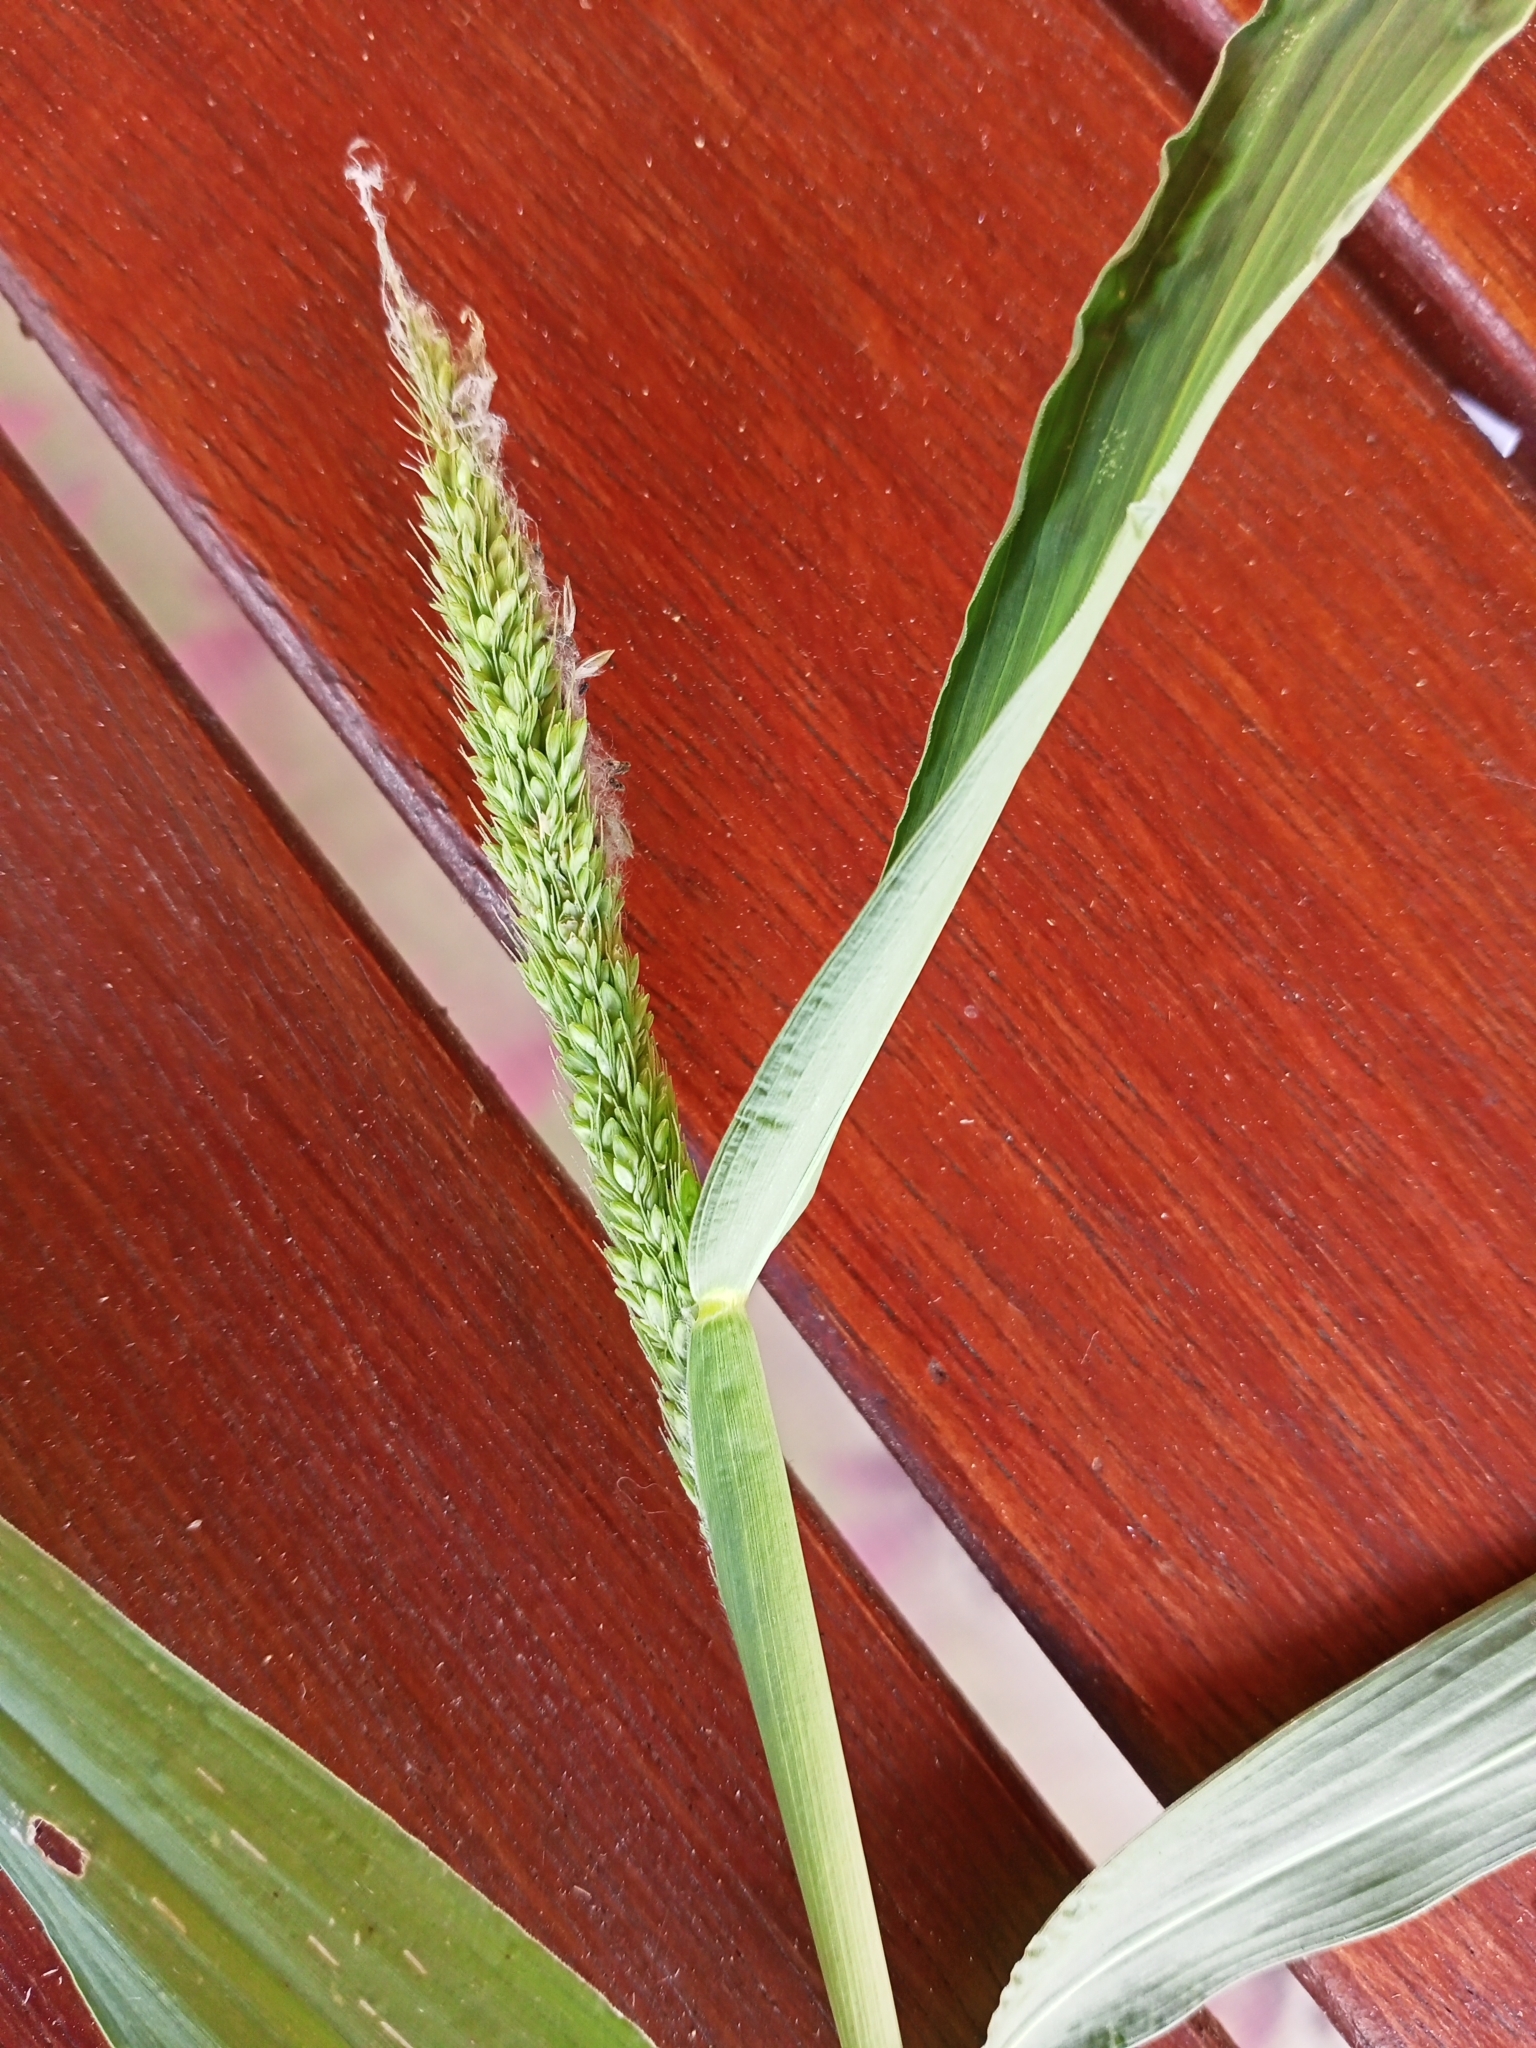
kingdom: Plantae
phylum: Tracheophyta
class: Liliopsida
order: Poales
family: Poaceae
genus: Setaria
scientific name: Setaria verticillata
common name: Hooked bristlegrass
